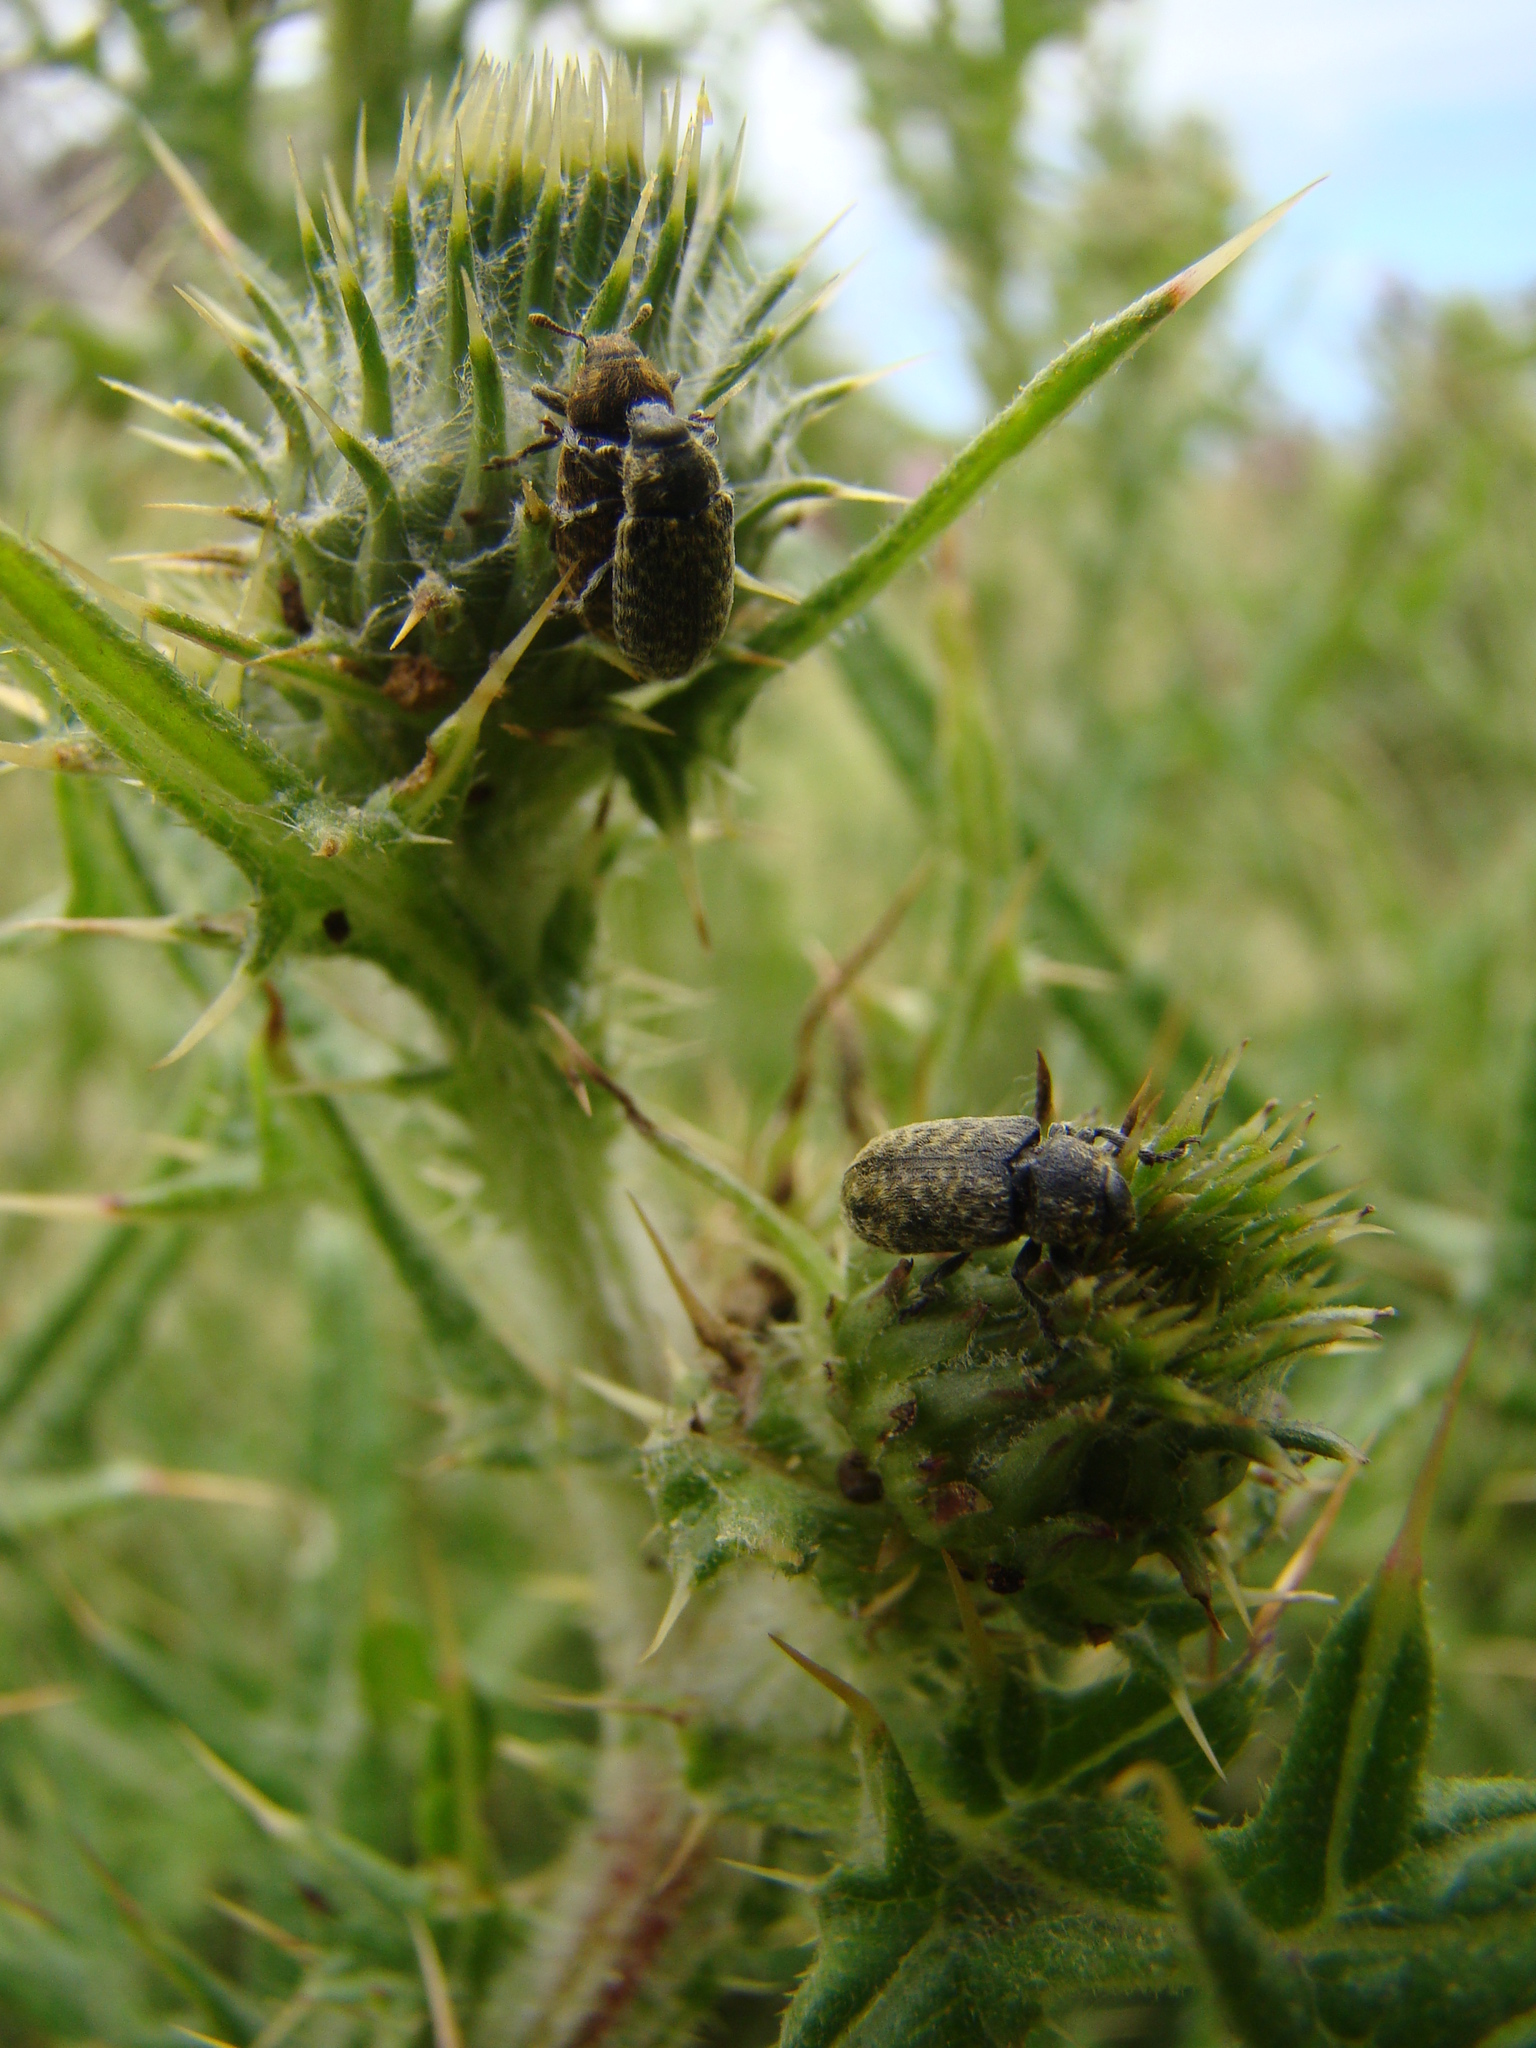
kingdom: Animalia
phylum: Arthropoda
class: Insecta
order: Coleoptera
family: Curculionidae
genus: Rhinocyllus
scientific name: Rhinocyllus conicus
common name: Weevil
